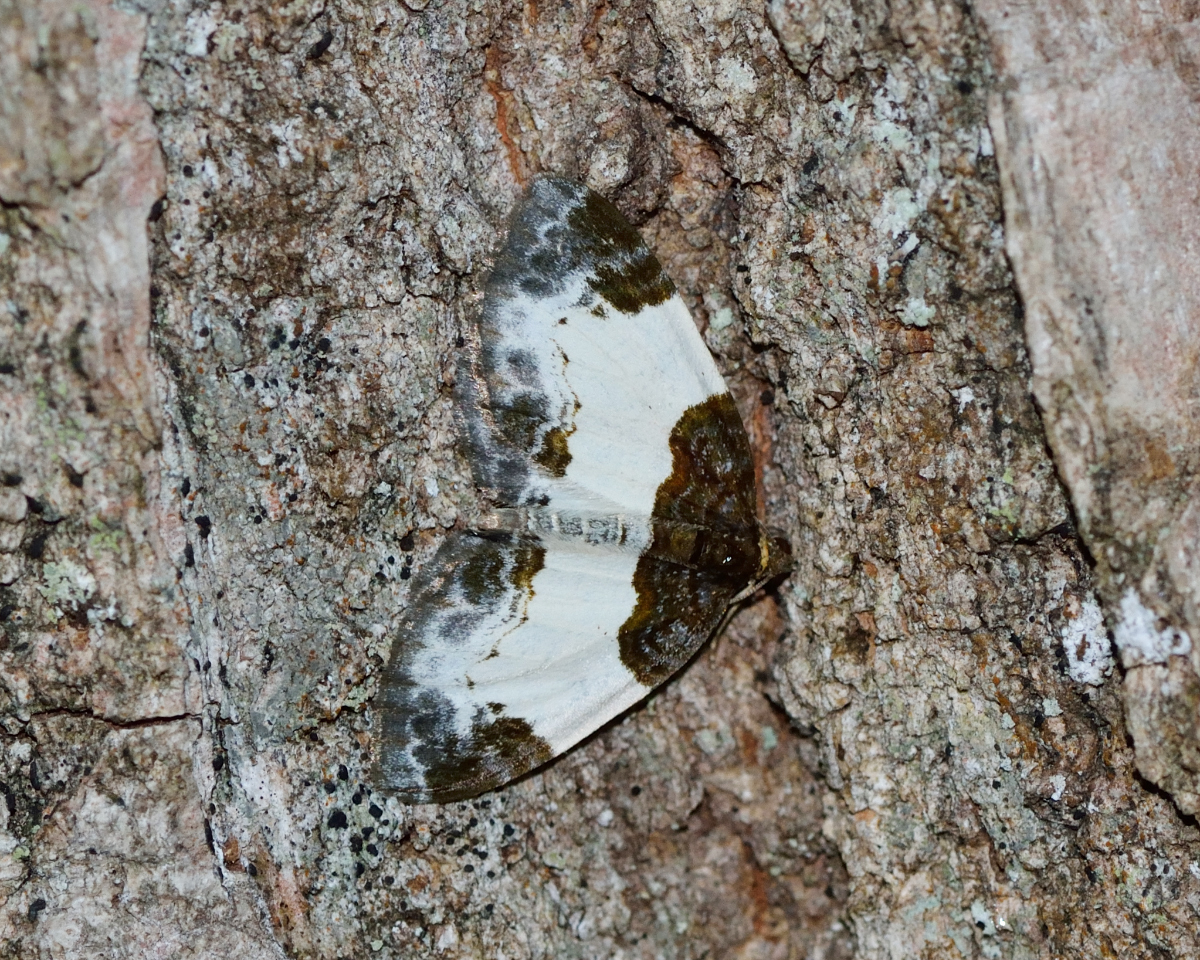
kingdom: Animalia
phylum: Arthropoda
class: Insecta
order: Lepidoptera
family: Geometridae
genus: Mesoleuca
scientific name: Mesoleuca albicillata
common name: Beautiful carpet
